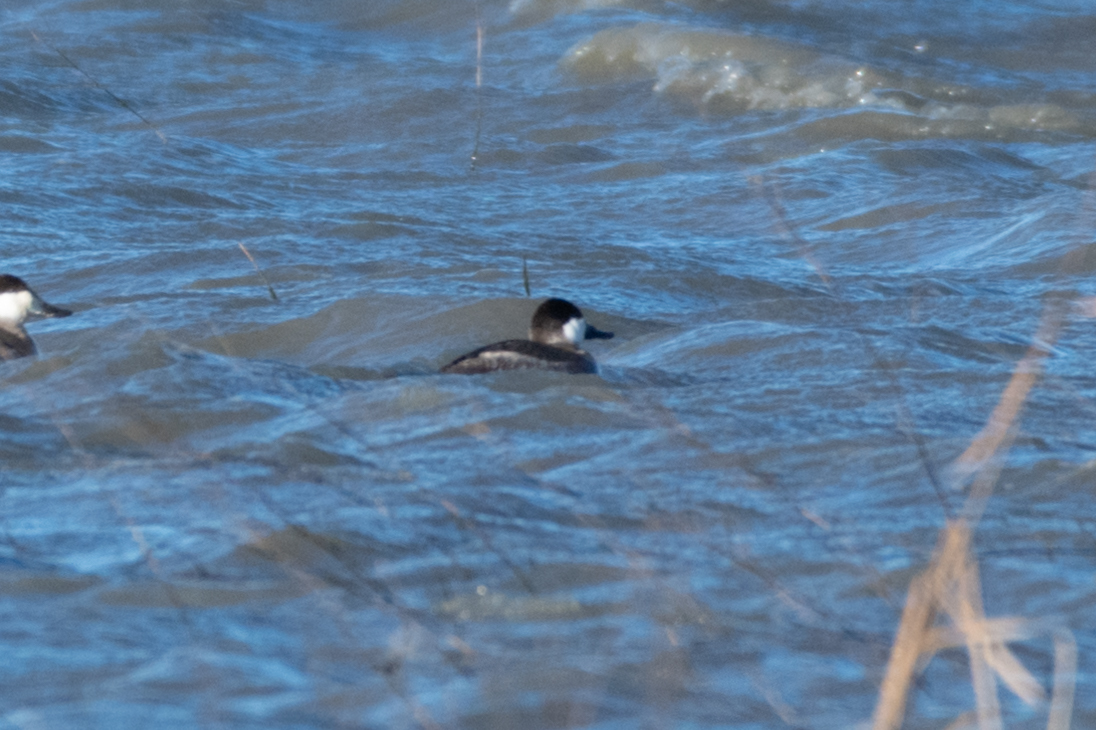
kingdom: Animalia
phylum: Chordata
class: Aves
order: Anseriformes
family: Anatidae
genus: Oxyura
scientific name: Oxyura jamaicensis
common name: Ruddy duck
